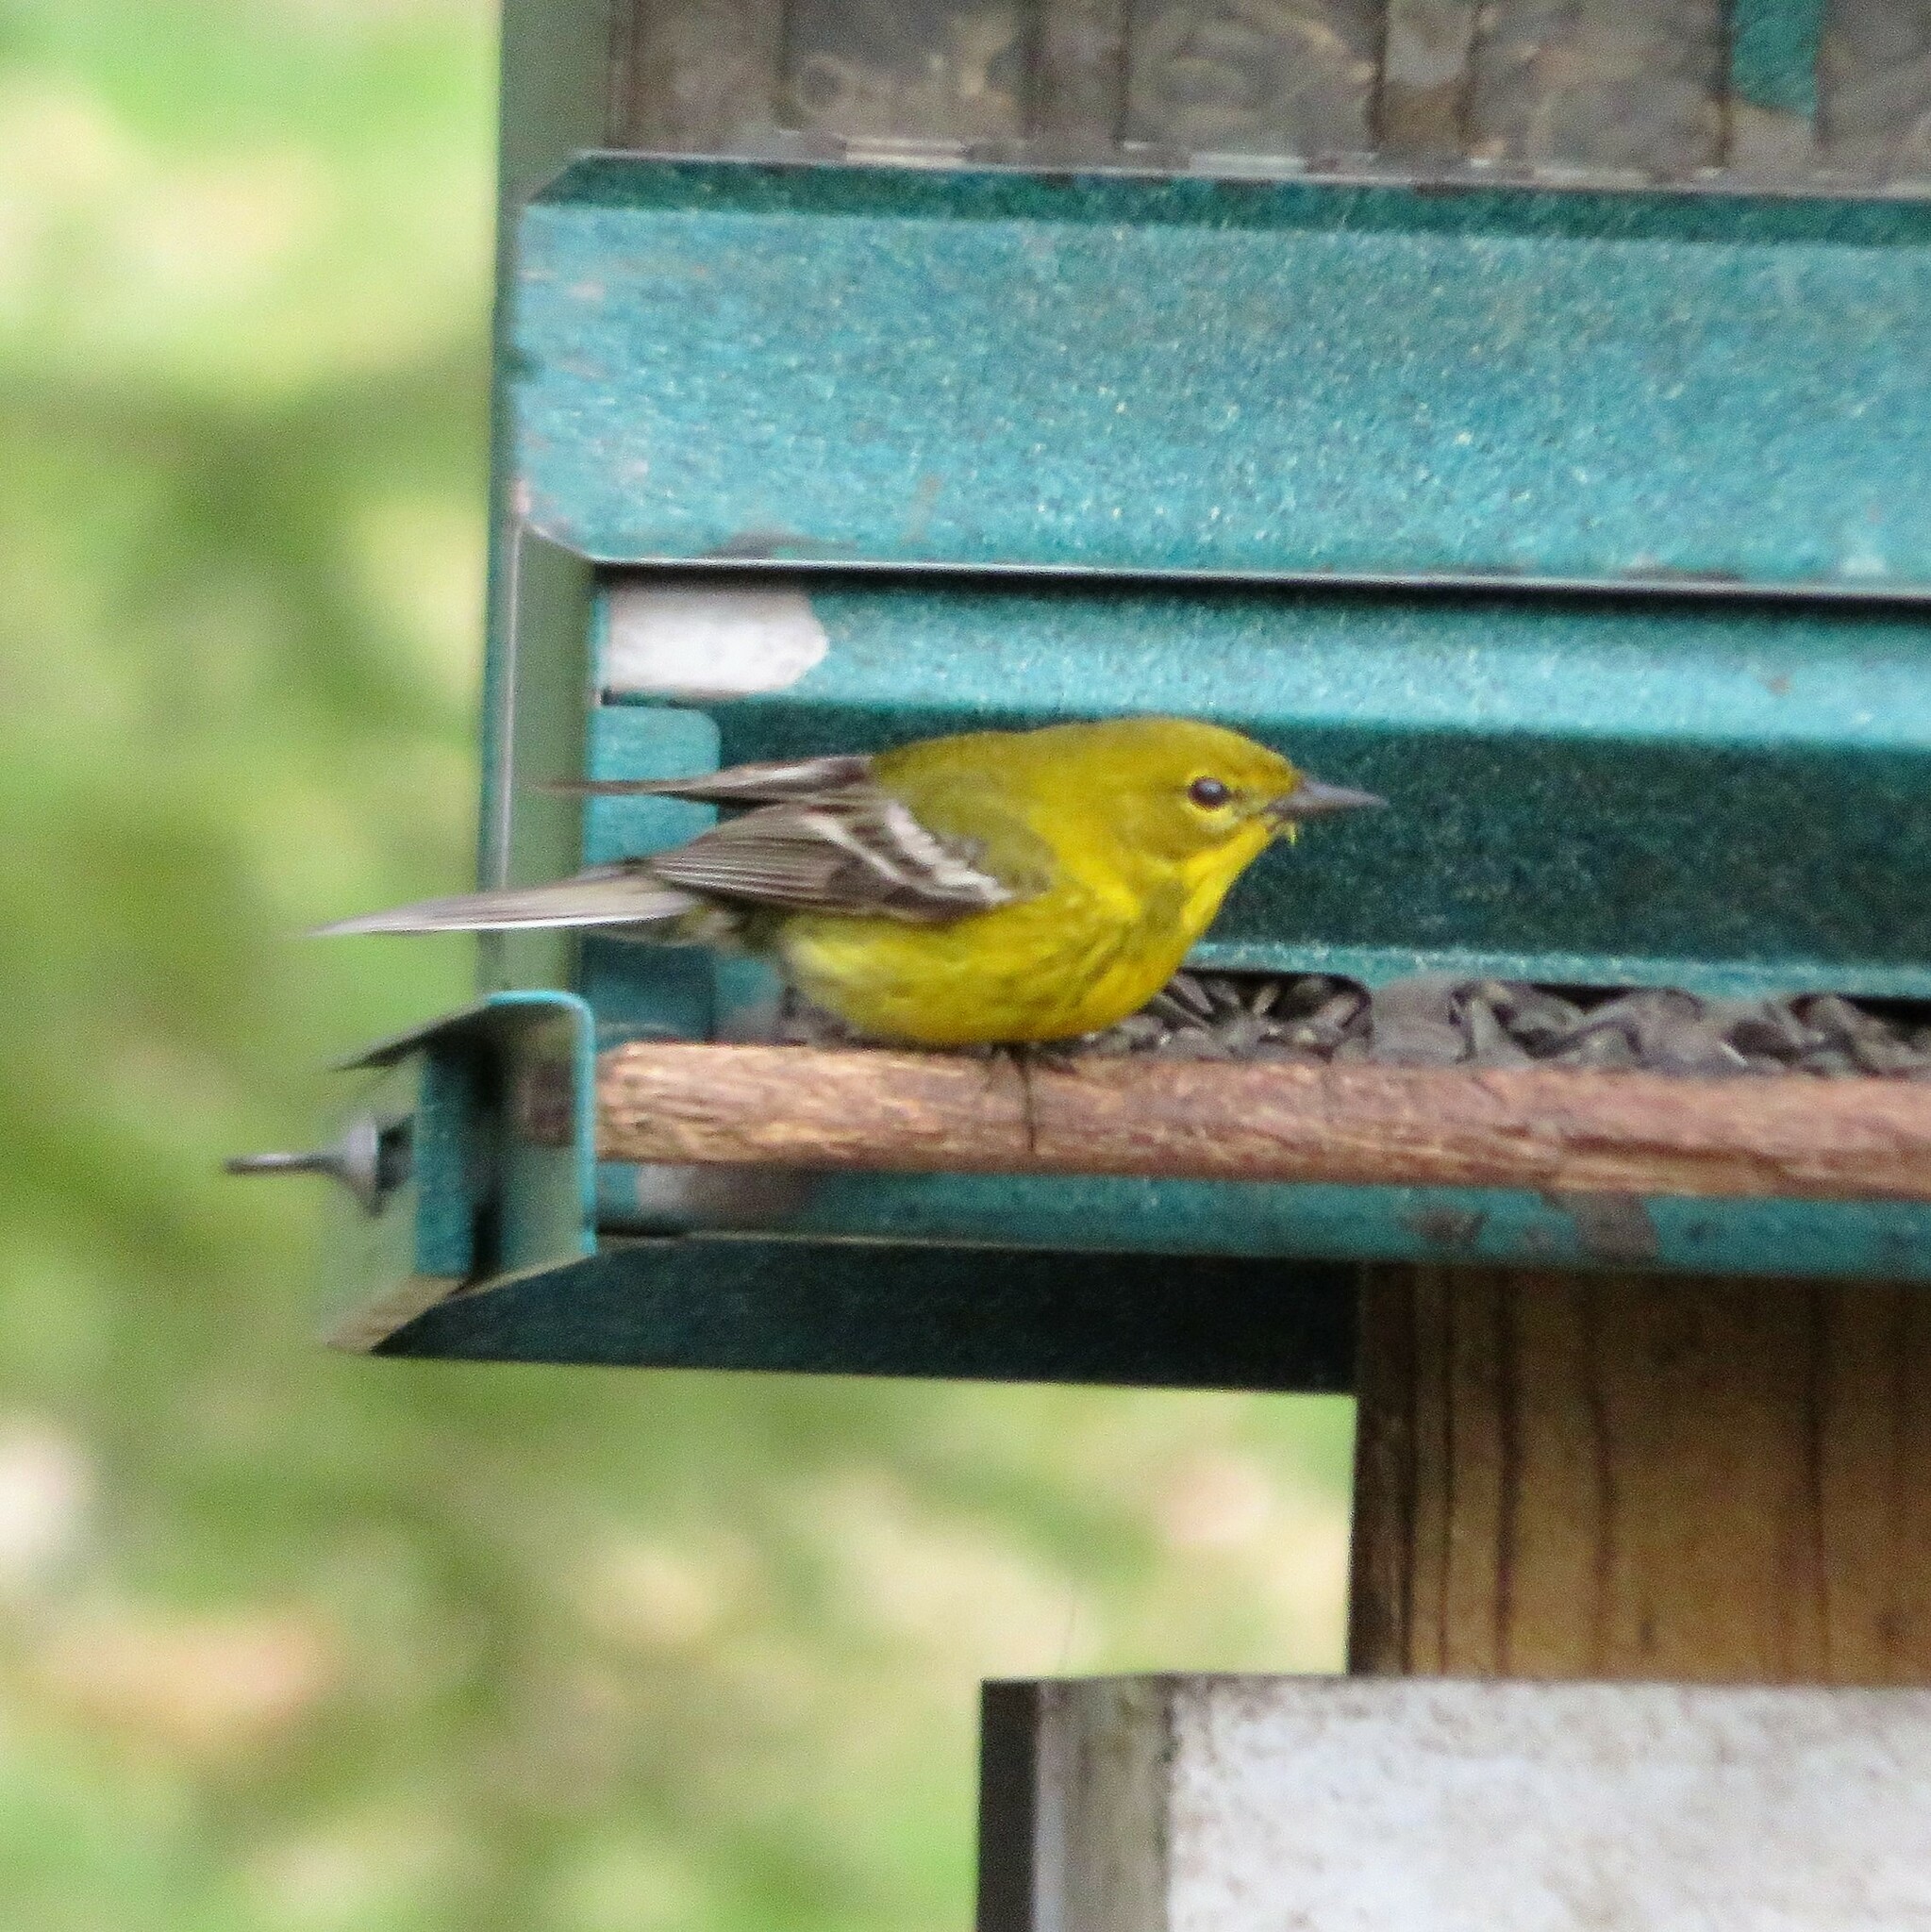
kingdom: Animalia
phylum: Chordata
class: Aves
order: Passeriformes
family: Parulidae
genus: Setophaga
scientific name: Setophaga pinus
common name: Pine warbler
